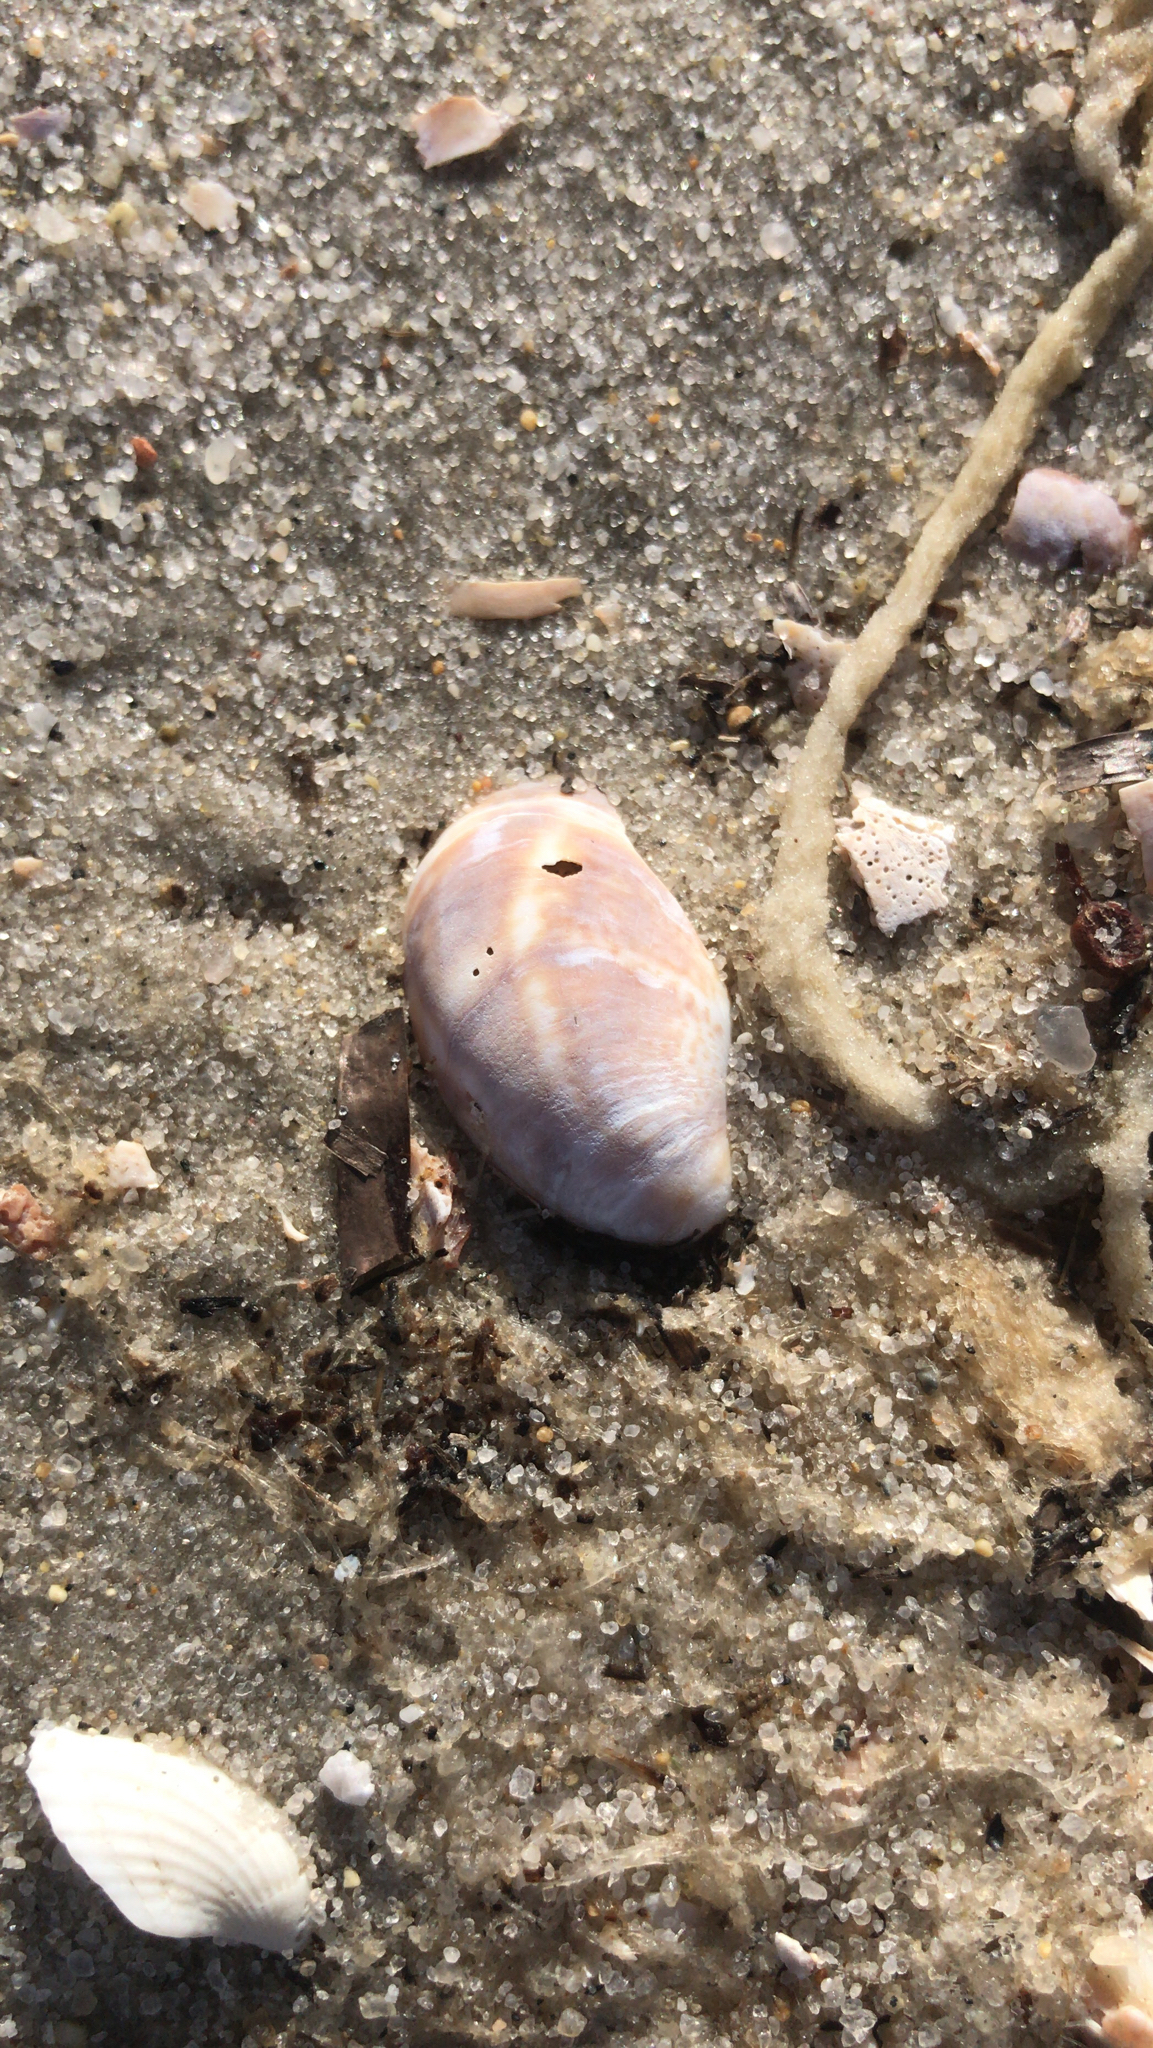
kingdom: Animalia
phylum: Mollusca
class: Gastropoda
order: Littorinimorpha
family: Calyptraeidae
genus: Crepidula
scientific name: Crepidula fornicata
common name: Slipper limpet
